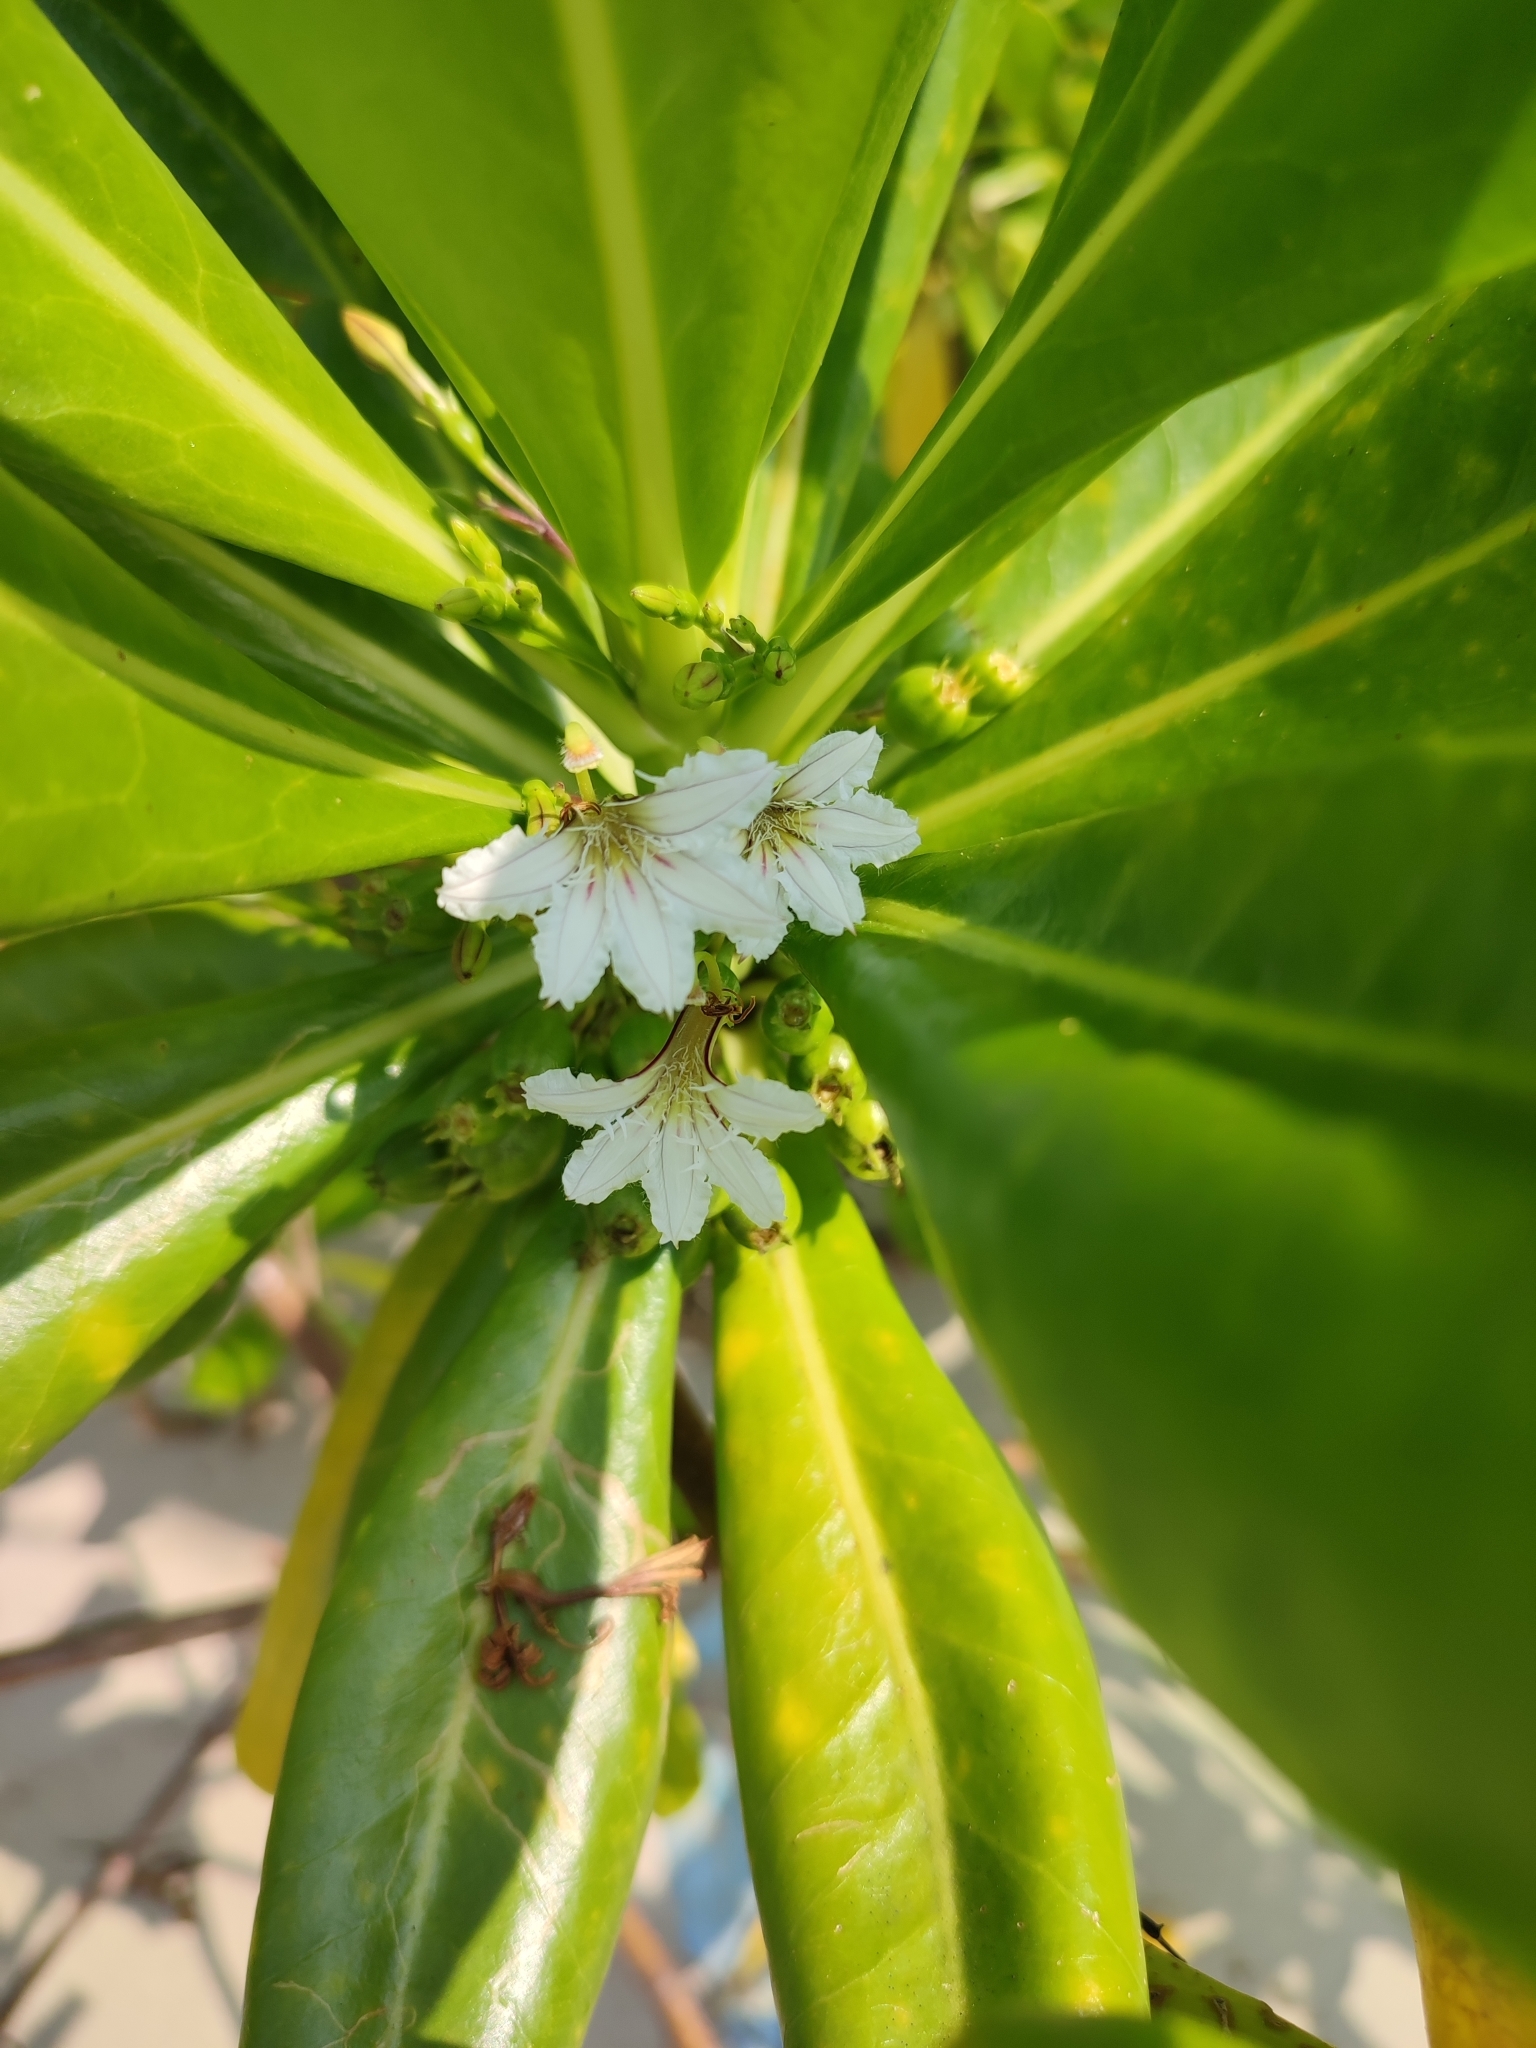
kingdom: Plantae
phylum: Tracheophyta
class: Magnoliopsida
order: Asterales
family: Goodeniaceae
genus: Scaevola
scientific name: Scaevola taccada
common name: Sea lettucetree
